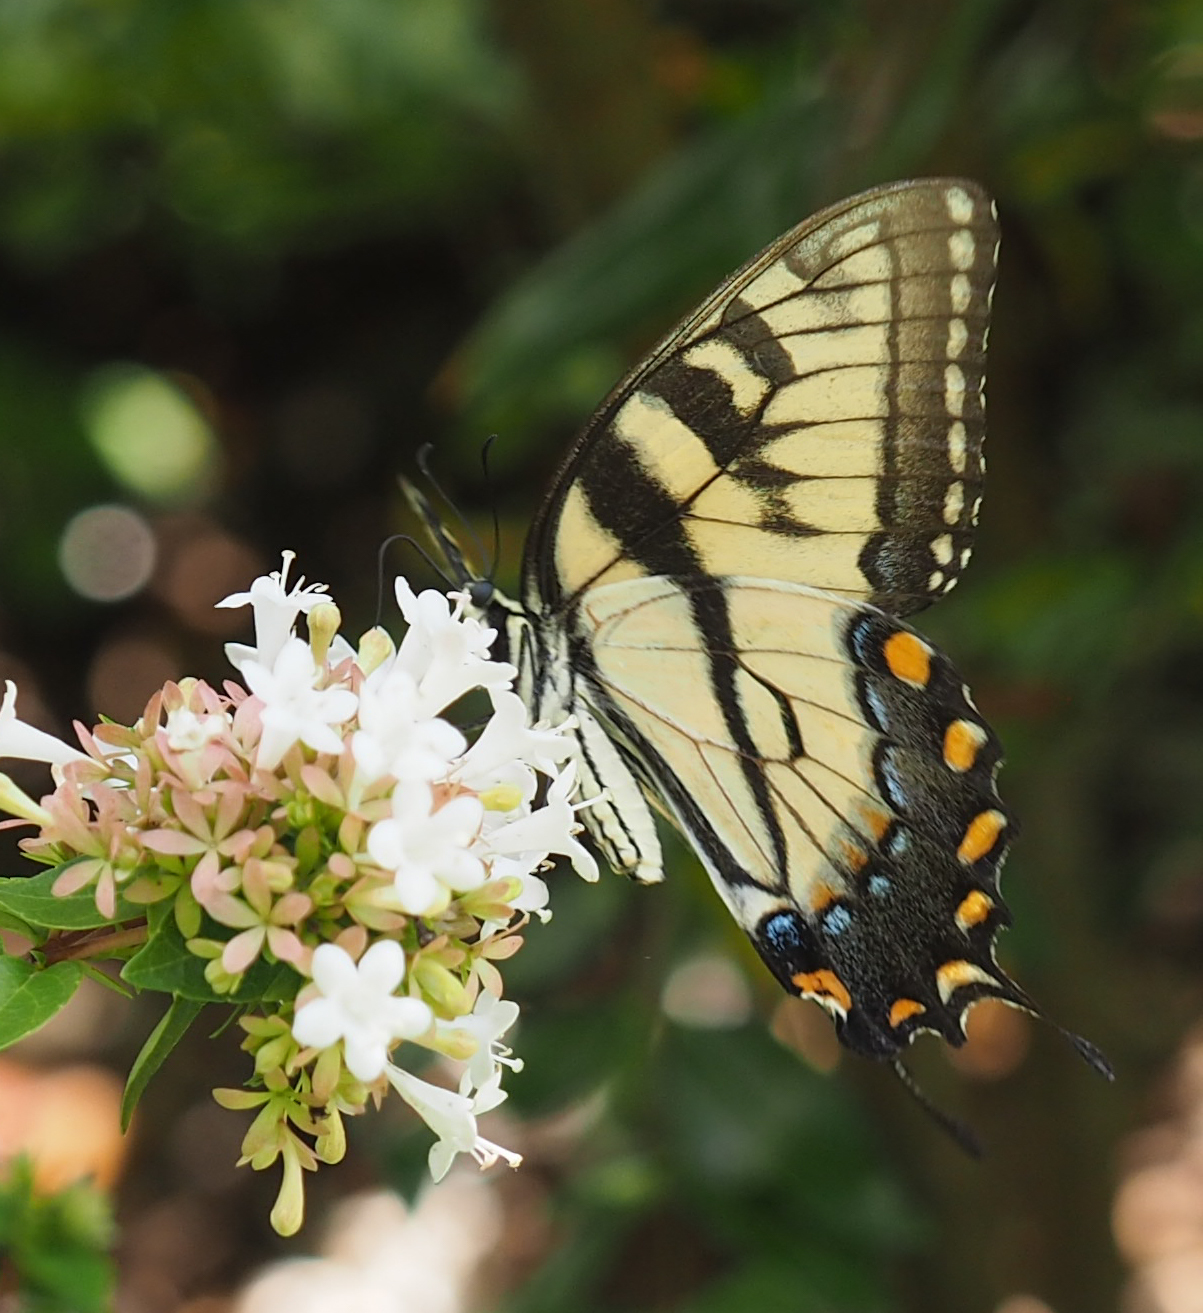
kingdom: Animalia
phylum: Arthropoda
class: Insecta
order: Lepidoptera
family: Papilionidae
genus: Papilio
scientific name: Papilio glaucus
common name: Tiger swallowtail
